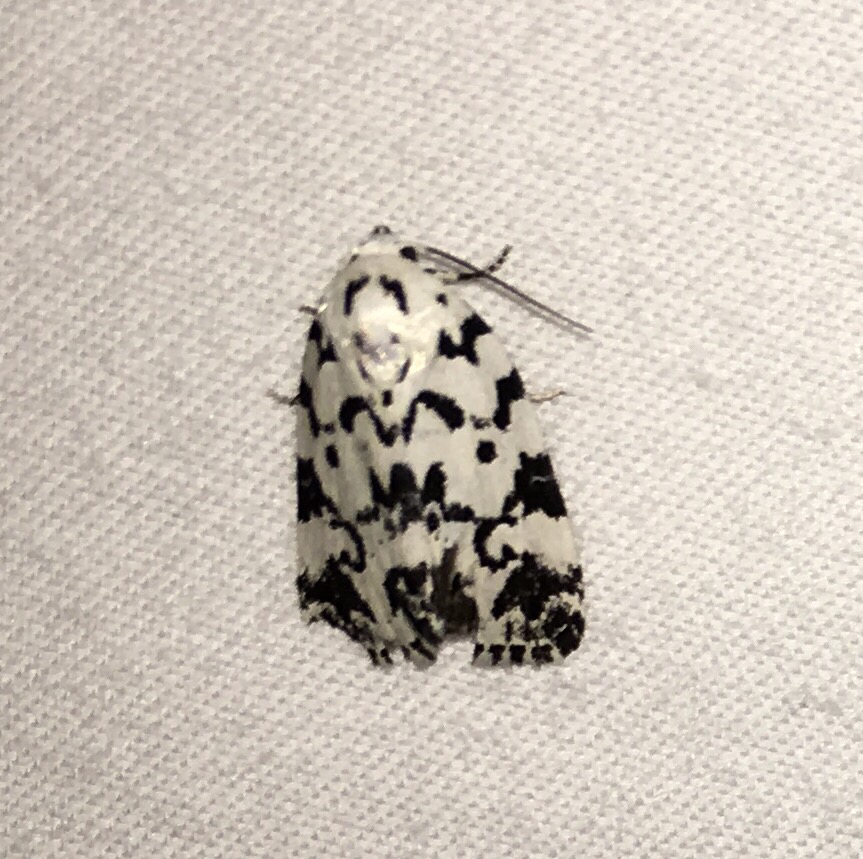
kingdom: Animalia
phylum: Arthropoda
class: Insecta
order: Lepidoptera
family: Noctuidae
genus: Polygrammate
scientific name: Polygrammate hebraeicum
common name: Hebrew moth
